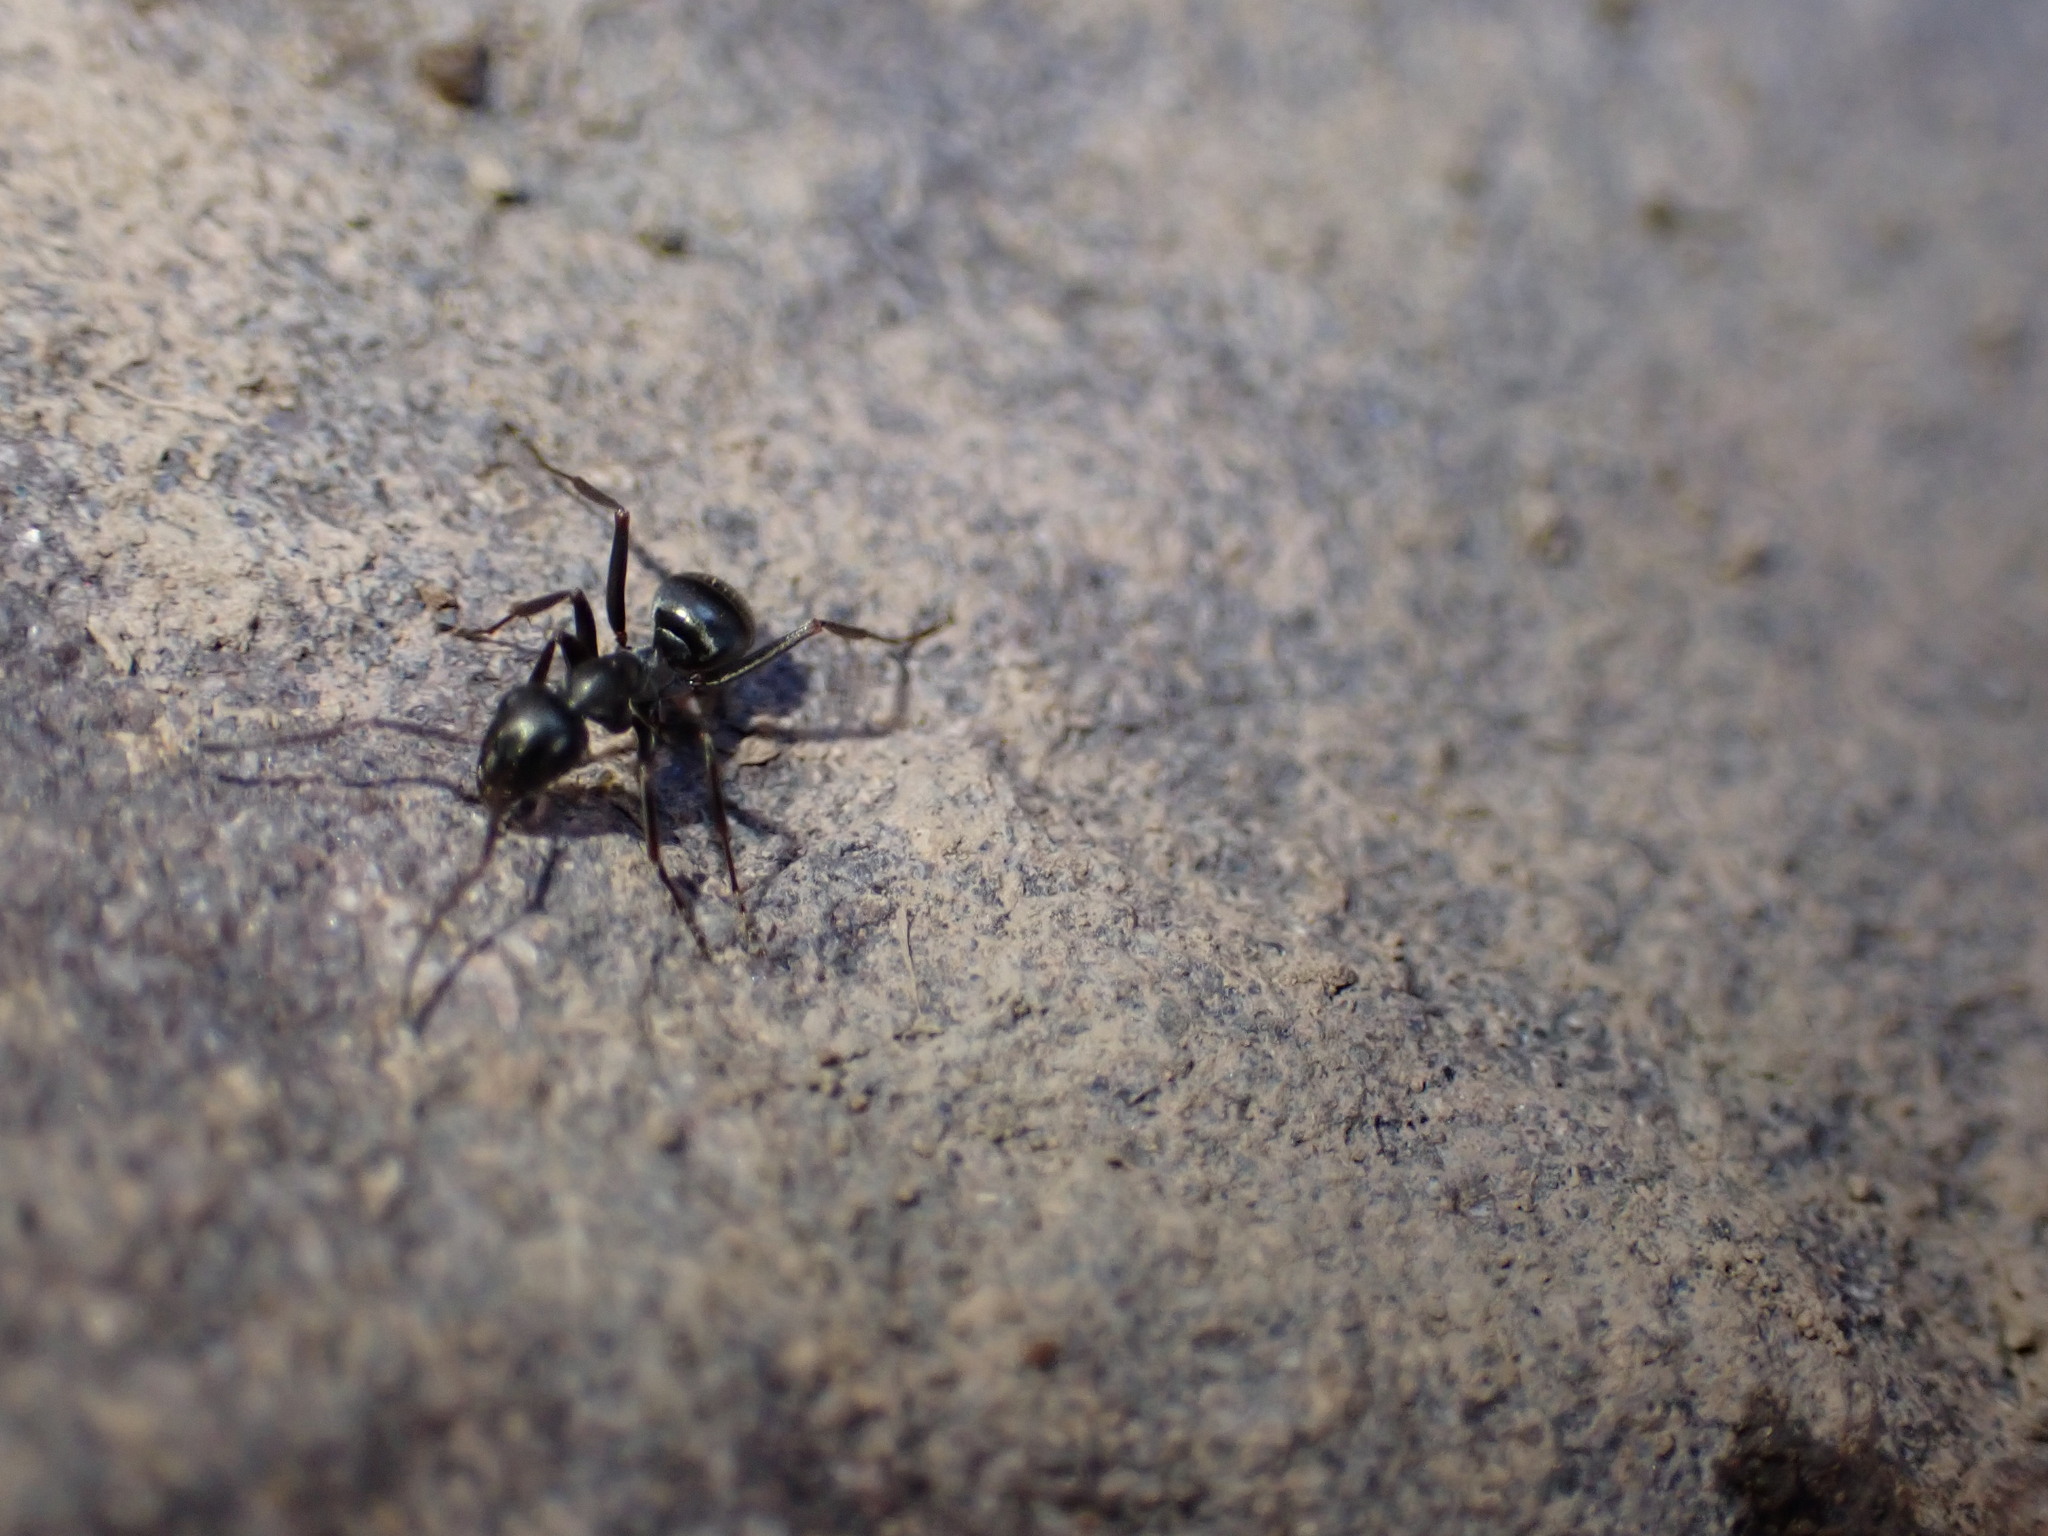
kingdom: Animalia
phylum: Arthropoda
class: Insecta
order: Hymenoptera
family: Formicidae
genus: Formica
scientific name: Formica
